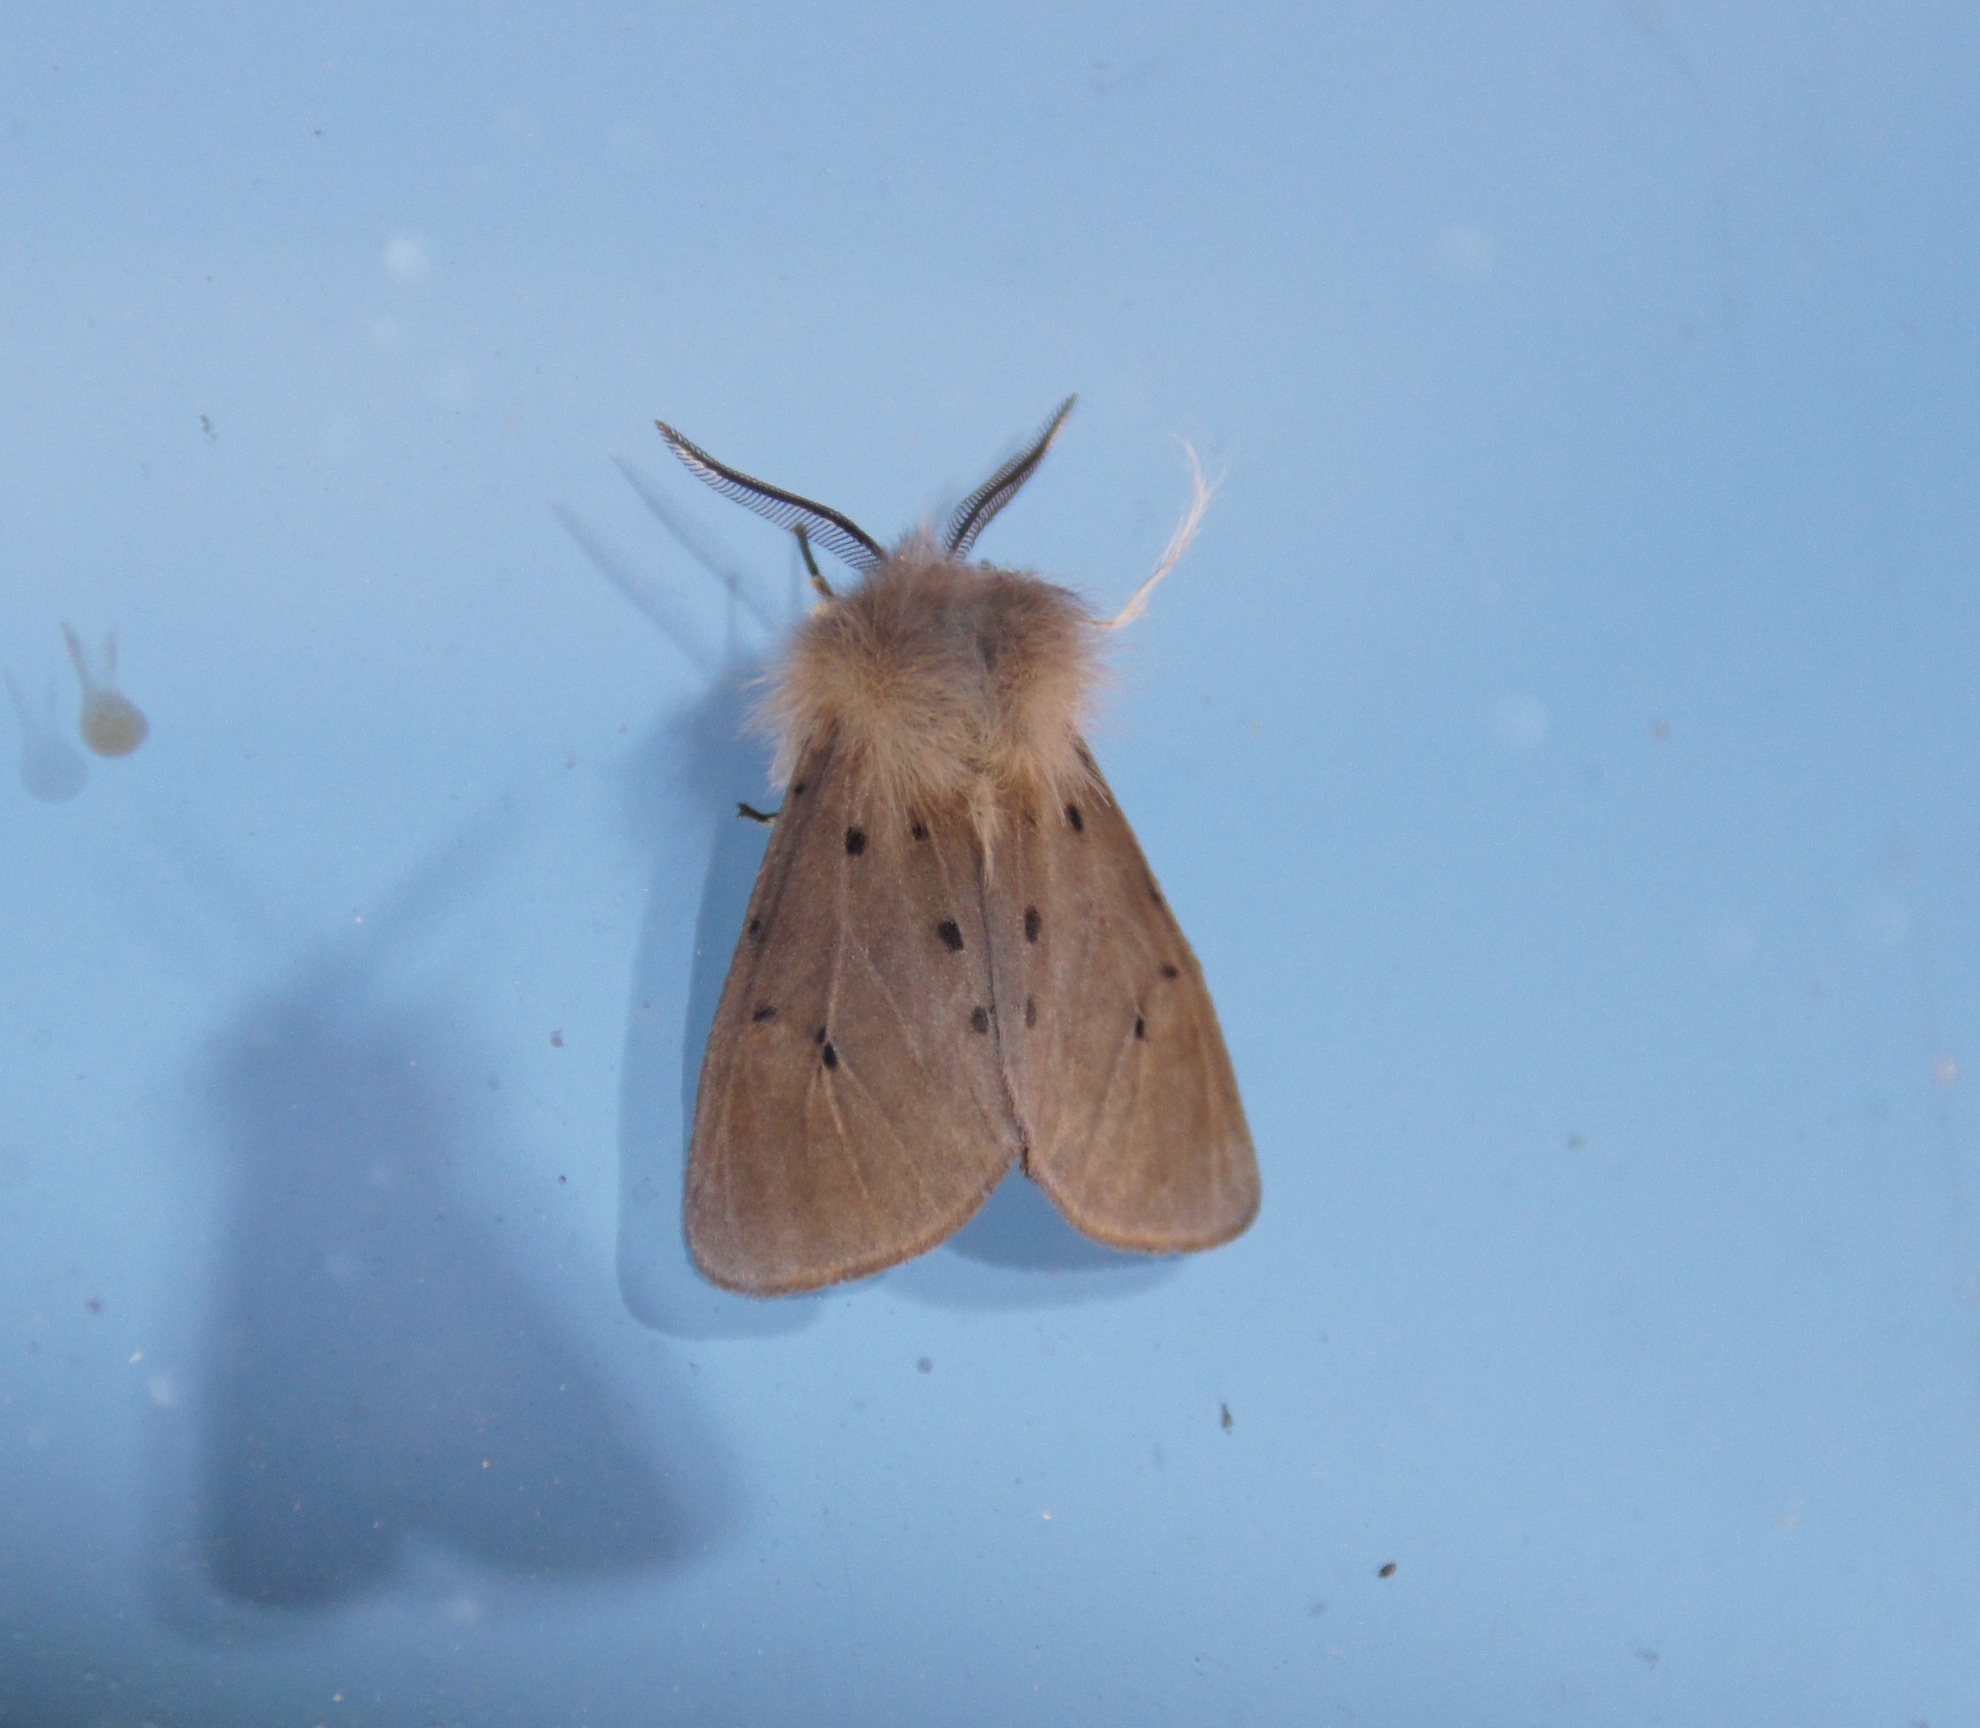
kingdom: Animalia
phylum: Arthropoda
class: Insecta
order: Lepidoptera
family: Erebidae
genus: Diaphora
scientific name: Diaphora mendica
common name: Muslin moth
